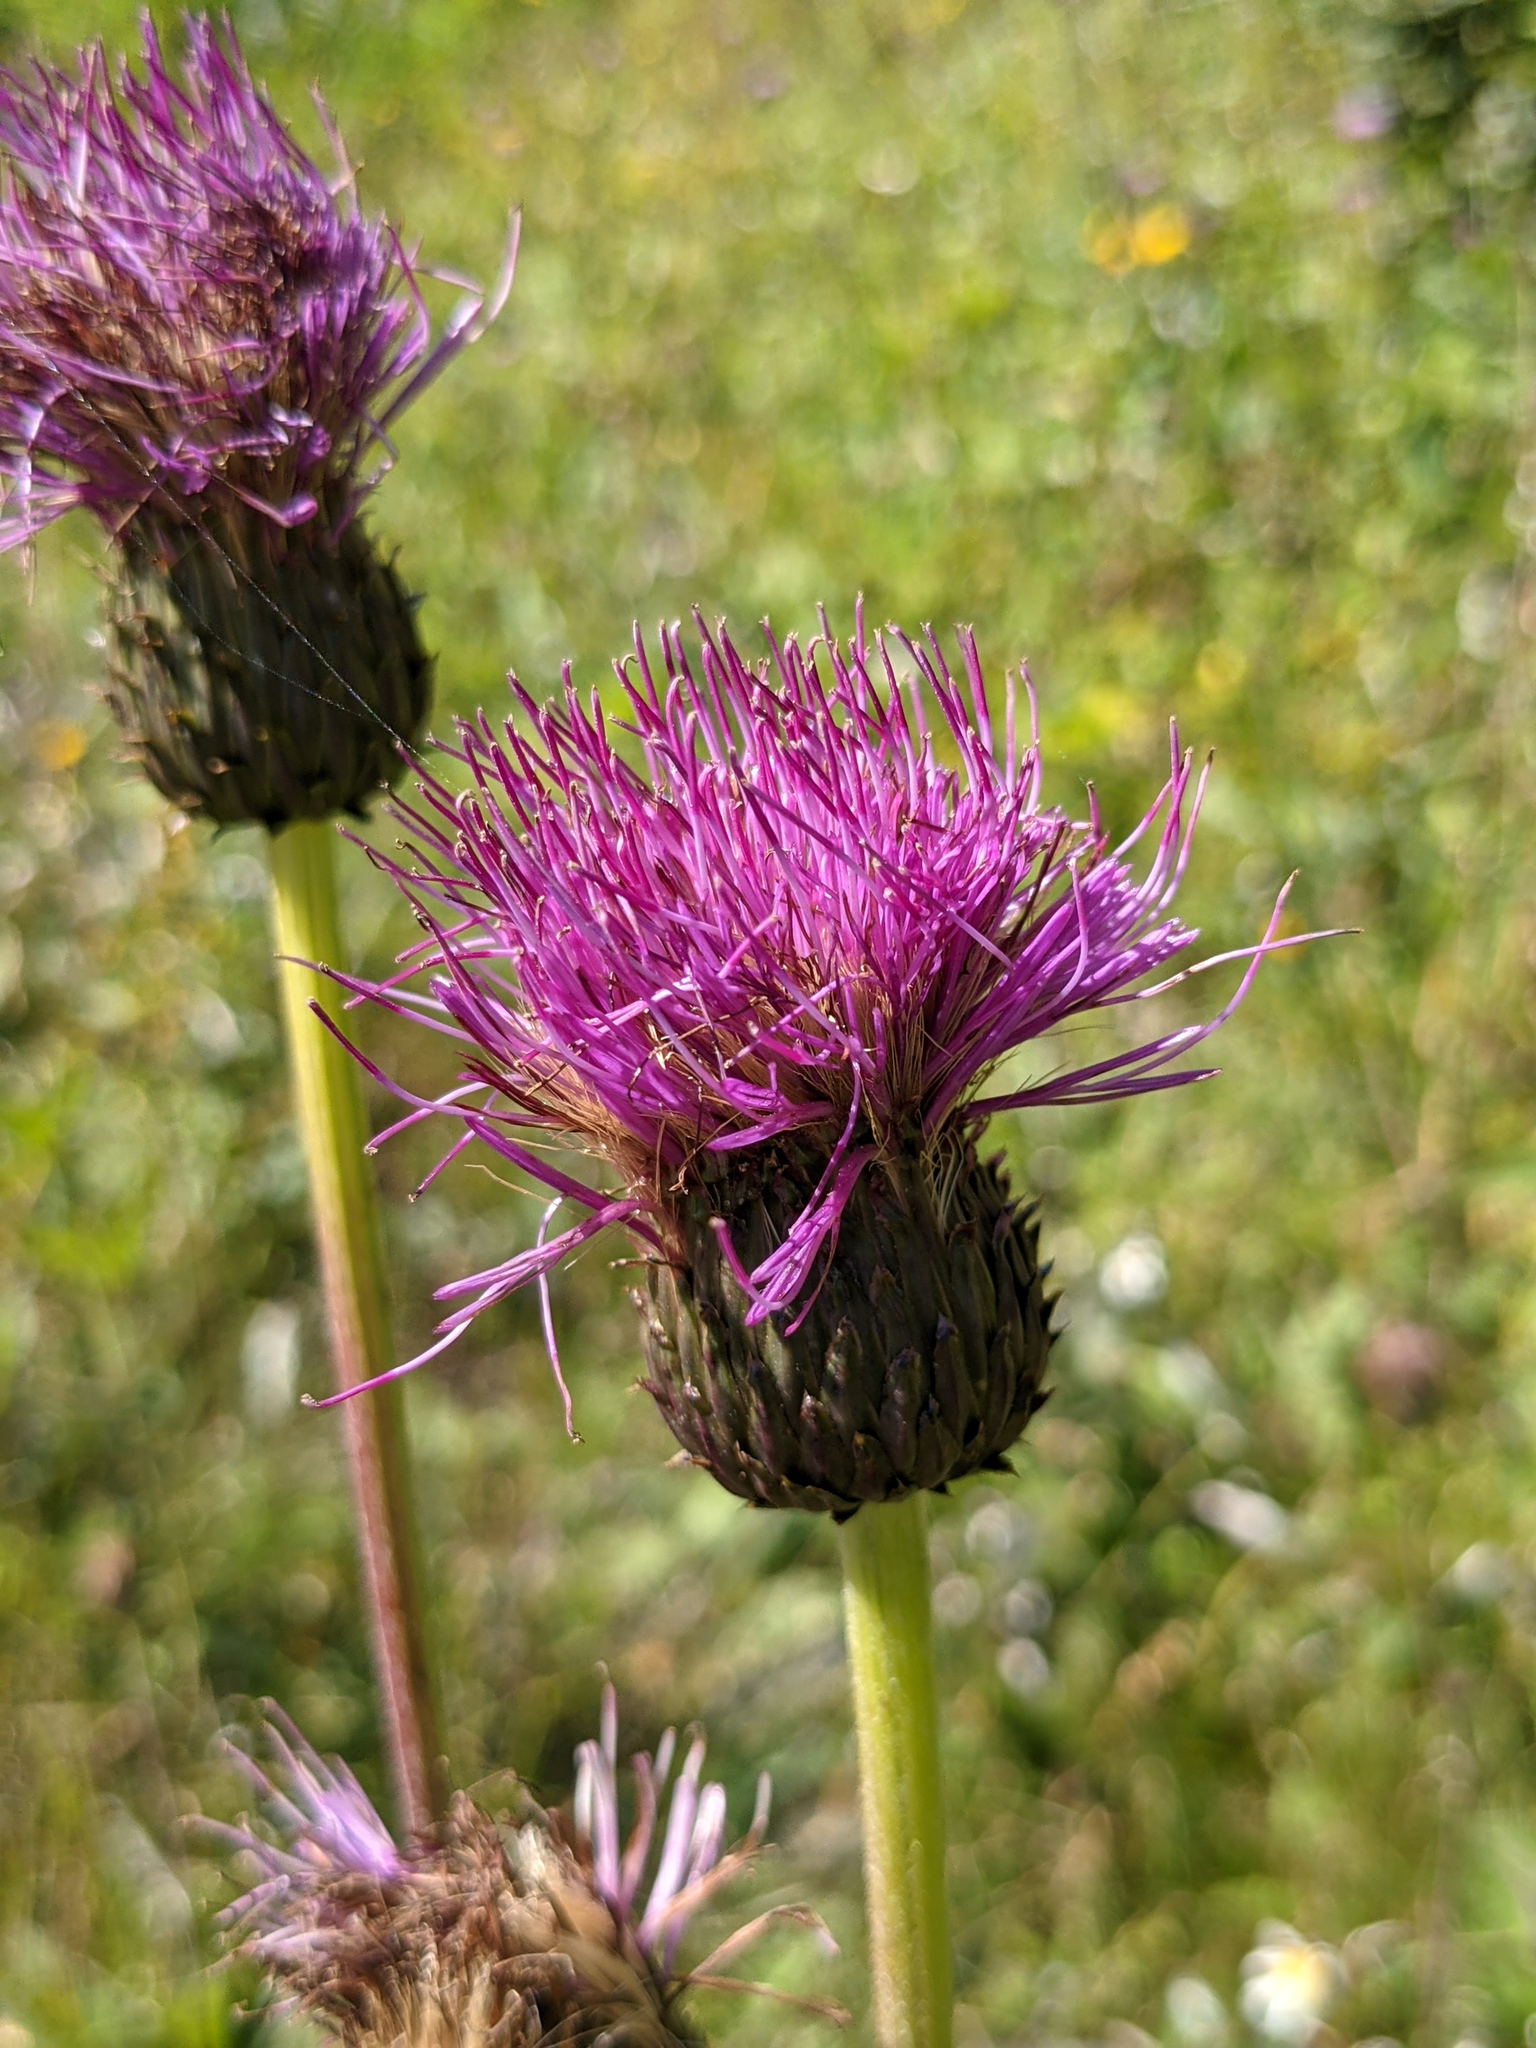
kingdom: Plantae
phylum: Tracheophyta
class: Magnoliopsida
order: Asterales
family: Asteraceae
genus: Cirsium
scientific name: Cirsium heterophyllum
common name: Melancholy thistle
